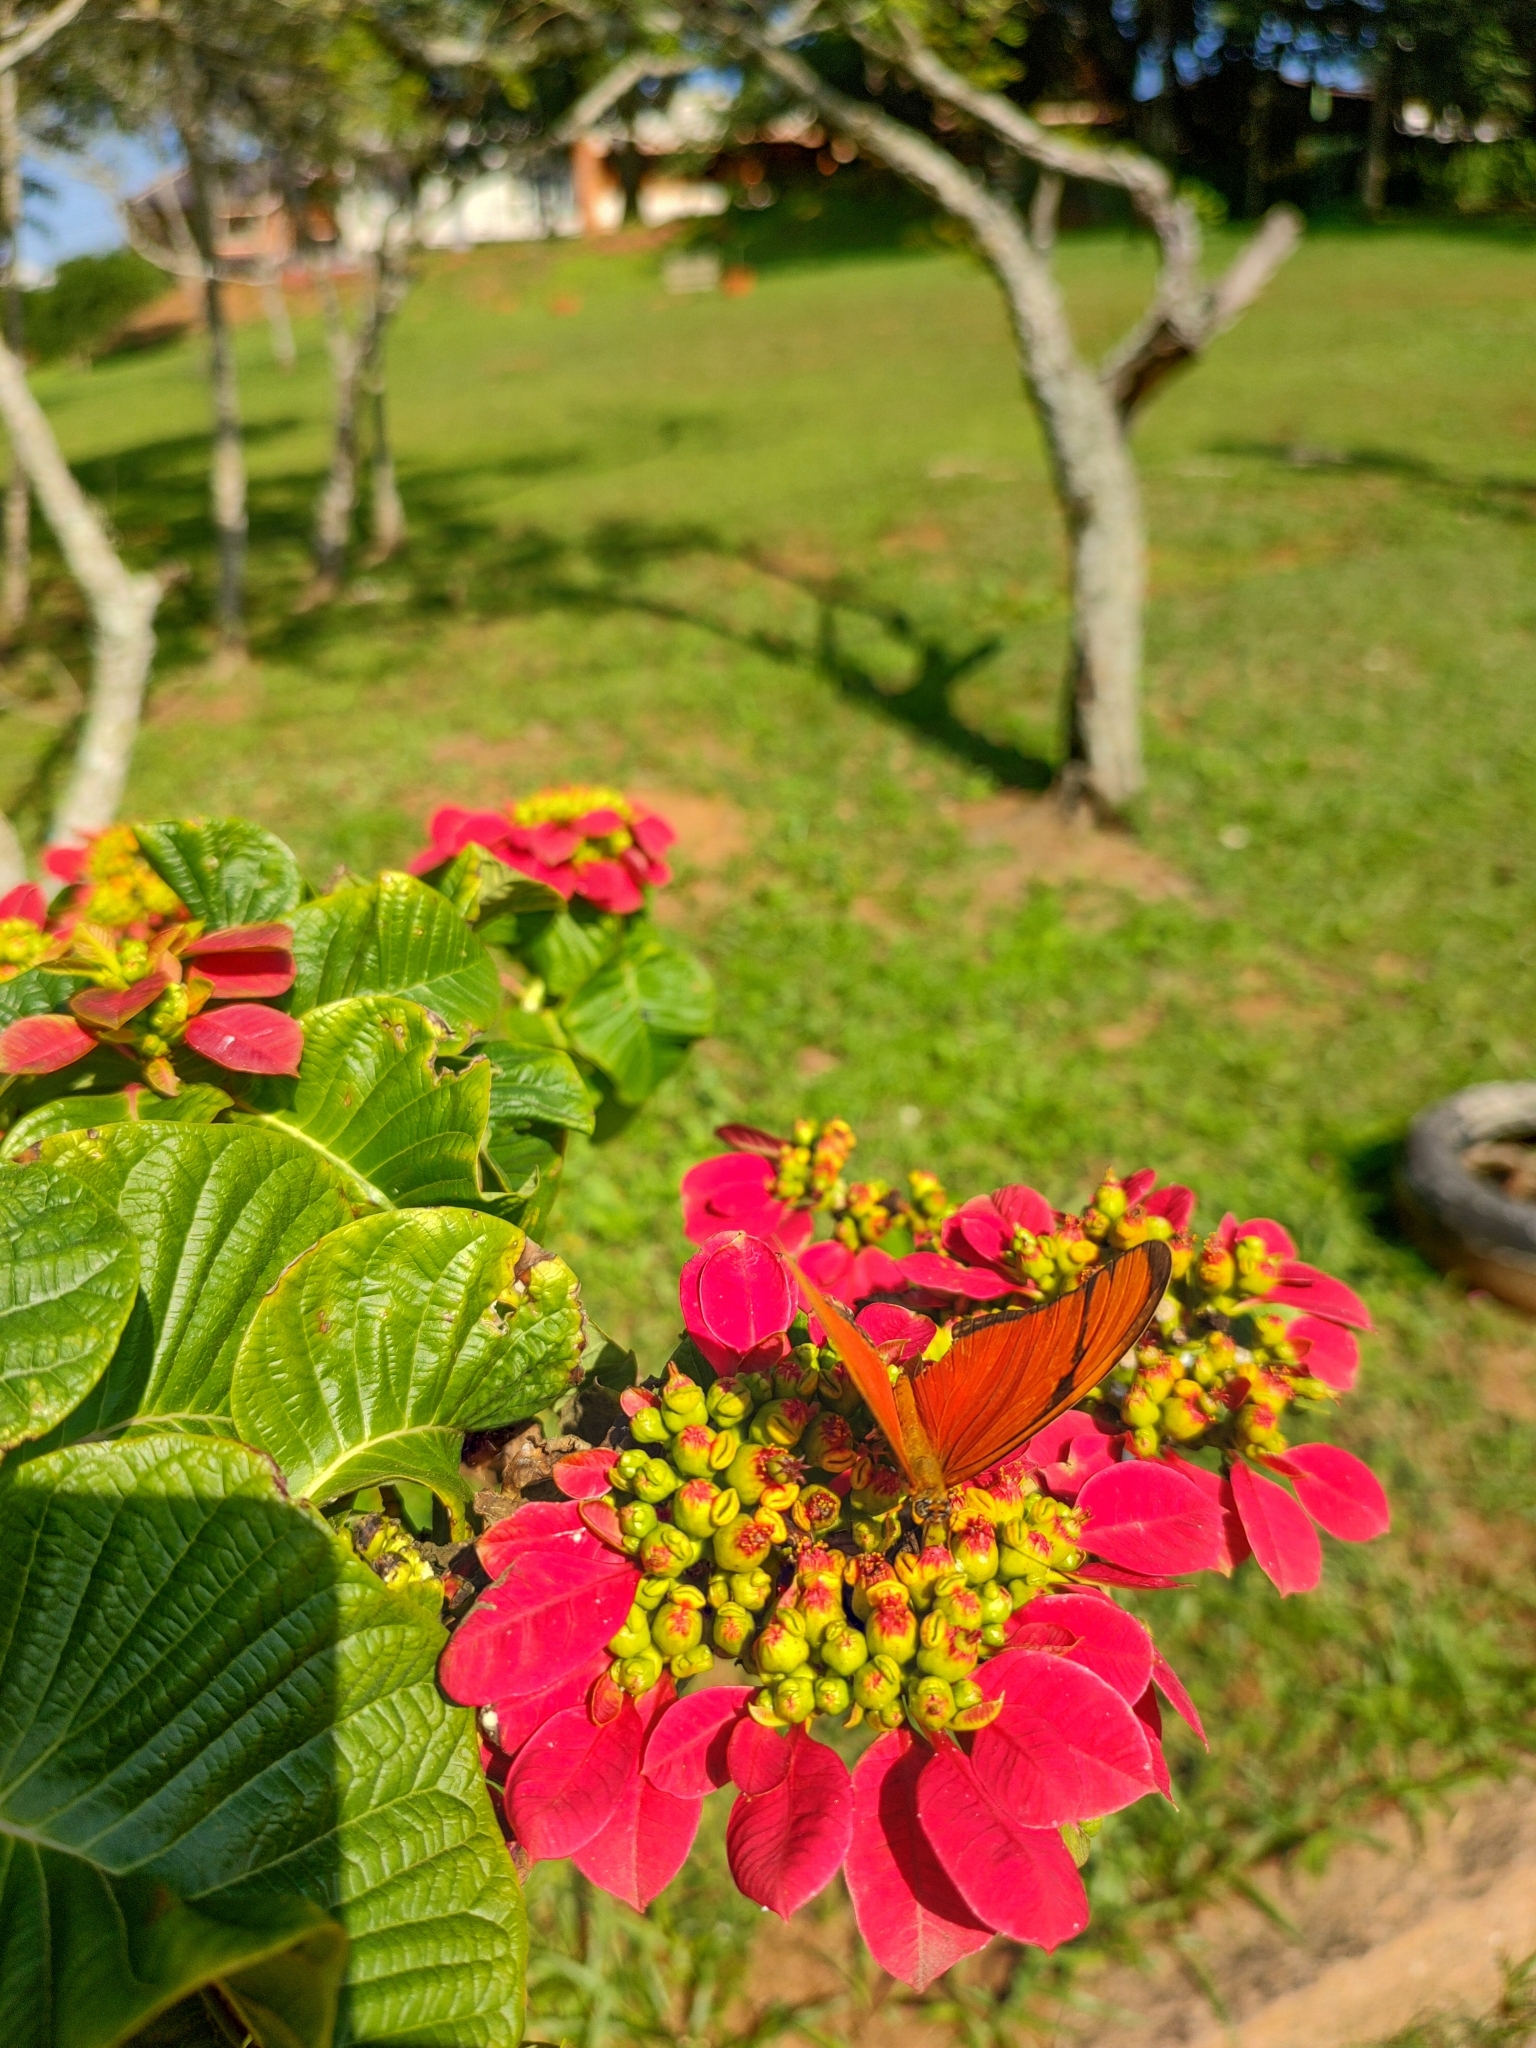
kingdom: Animalia
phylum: Arthropoda
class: Insecta
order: Lepidoptera
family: Nymphalidae
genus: Dryas
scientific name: Dryas iulia
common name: Flambeau
